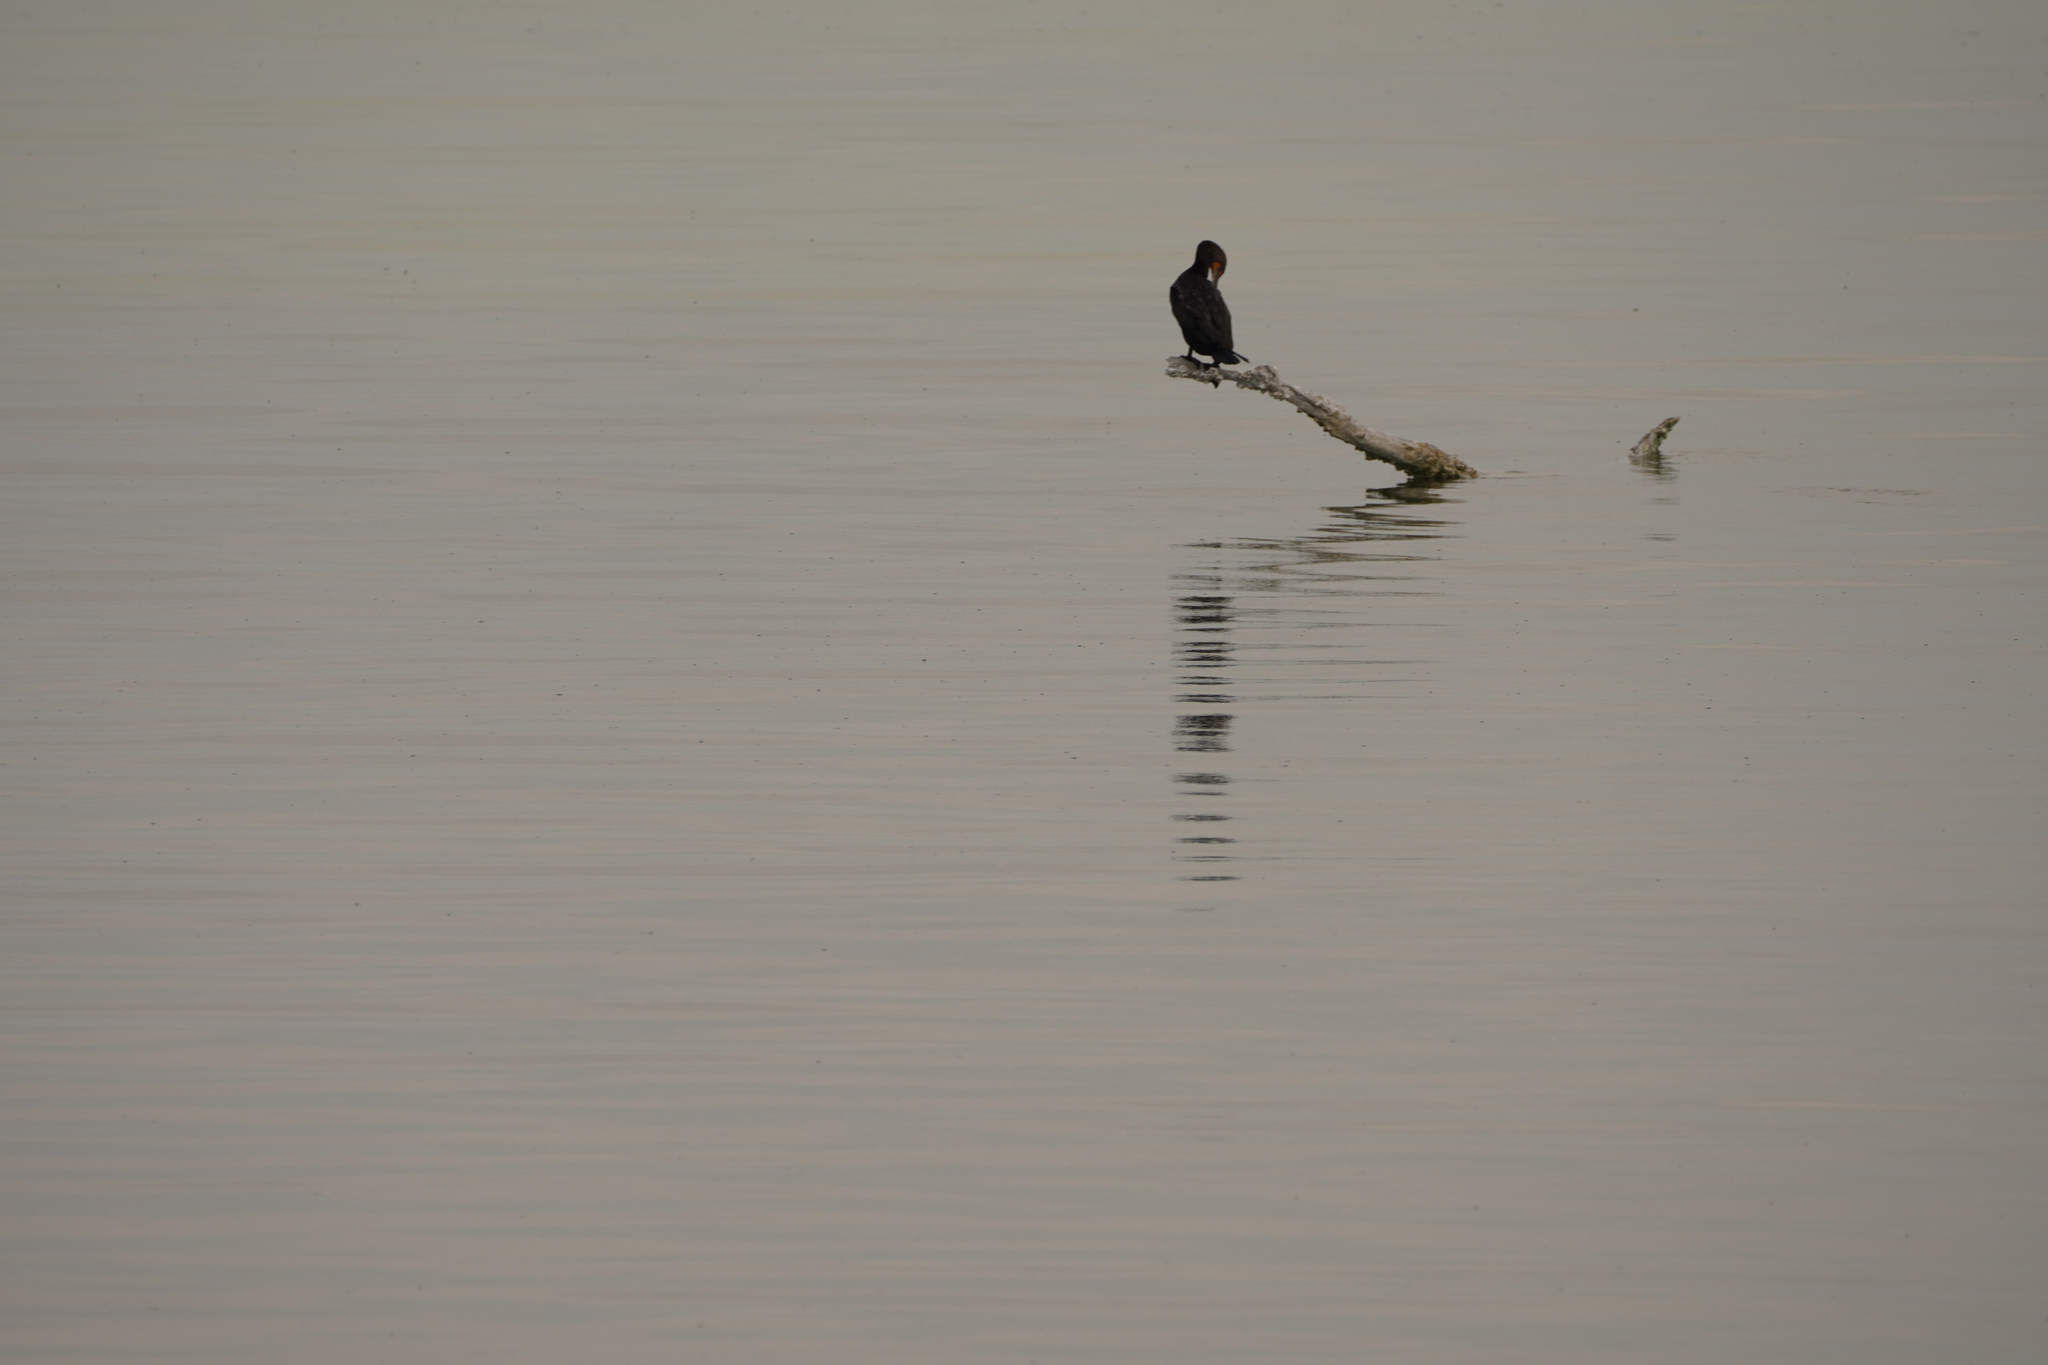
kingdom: Animalia
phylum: Chordata
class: Aves
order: Suliformes
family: Phalacrocoracidae
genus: Phalacrocorax
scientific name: Phalacrocorax auritus
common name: Double-crested cormorant
